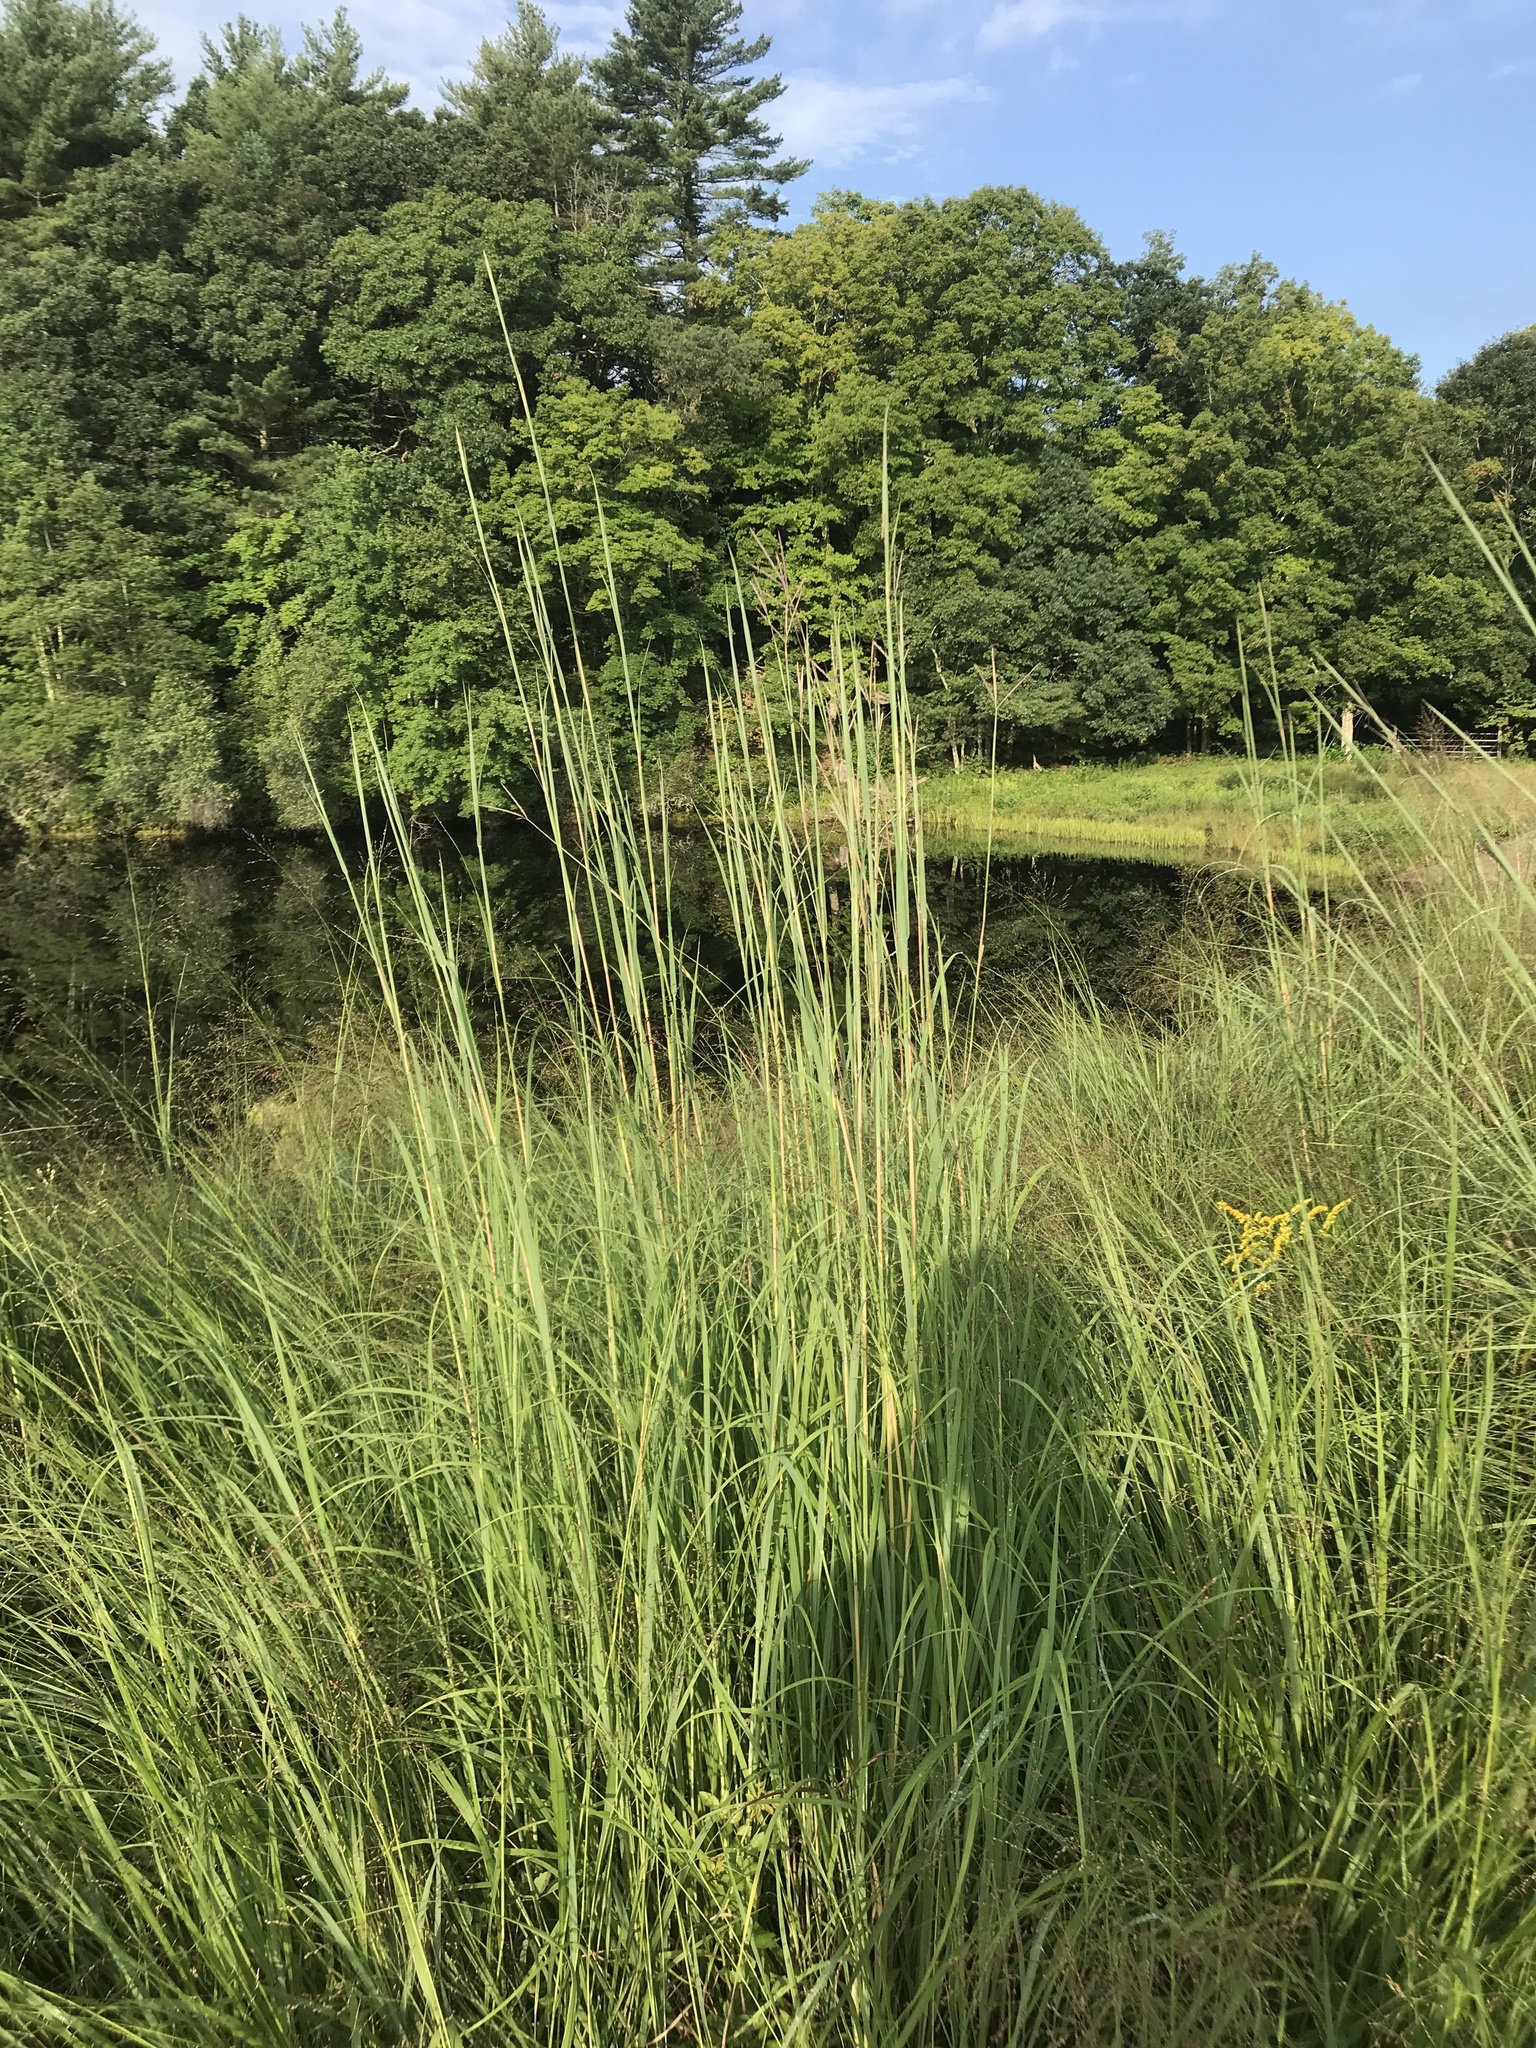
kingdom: Plantae
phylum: Tracheophyta
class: Liliopsida
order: Poales
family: Poaceae
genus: Andropogon
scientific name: Andropogon gerardi
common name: Big bluestem
